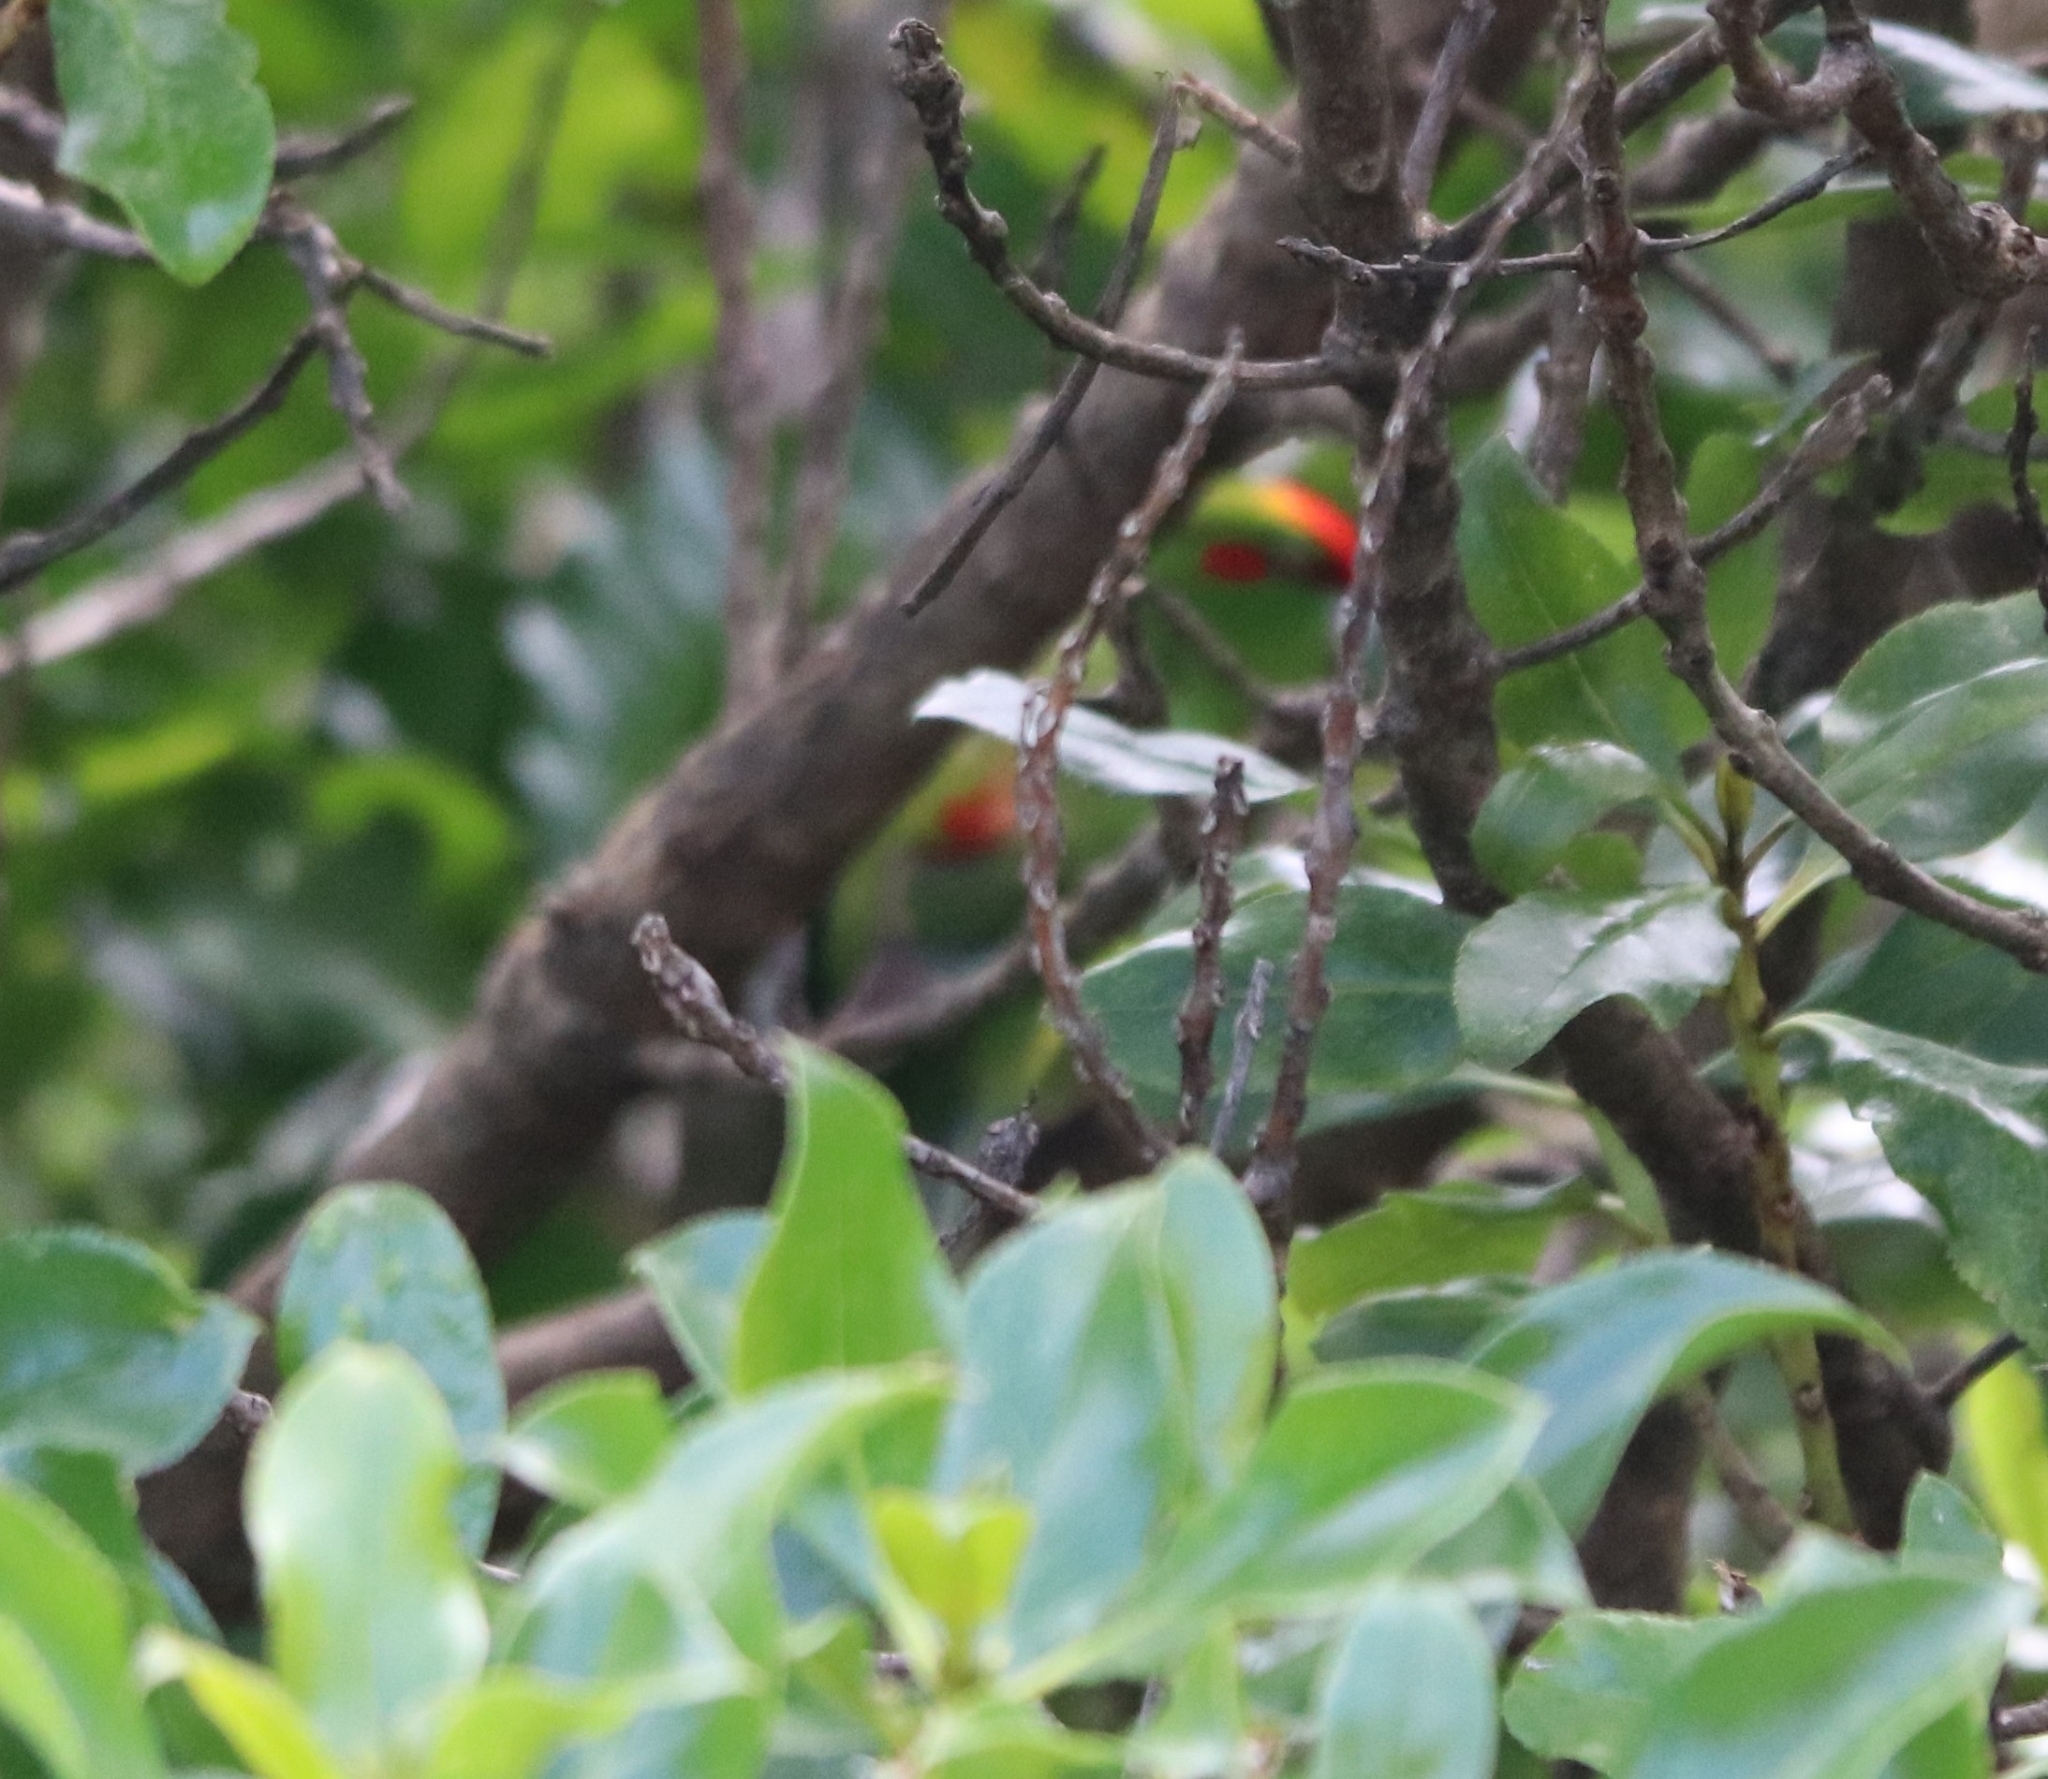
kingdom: Animalia
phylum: Chordata
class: Aves
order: Psittaciformes
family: Psittacidae
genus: Cyanoramphus
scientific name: Cyanoramphus novaezelandiae
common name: Red-fronted parakeet
